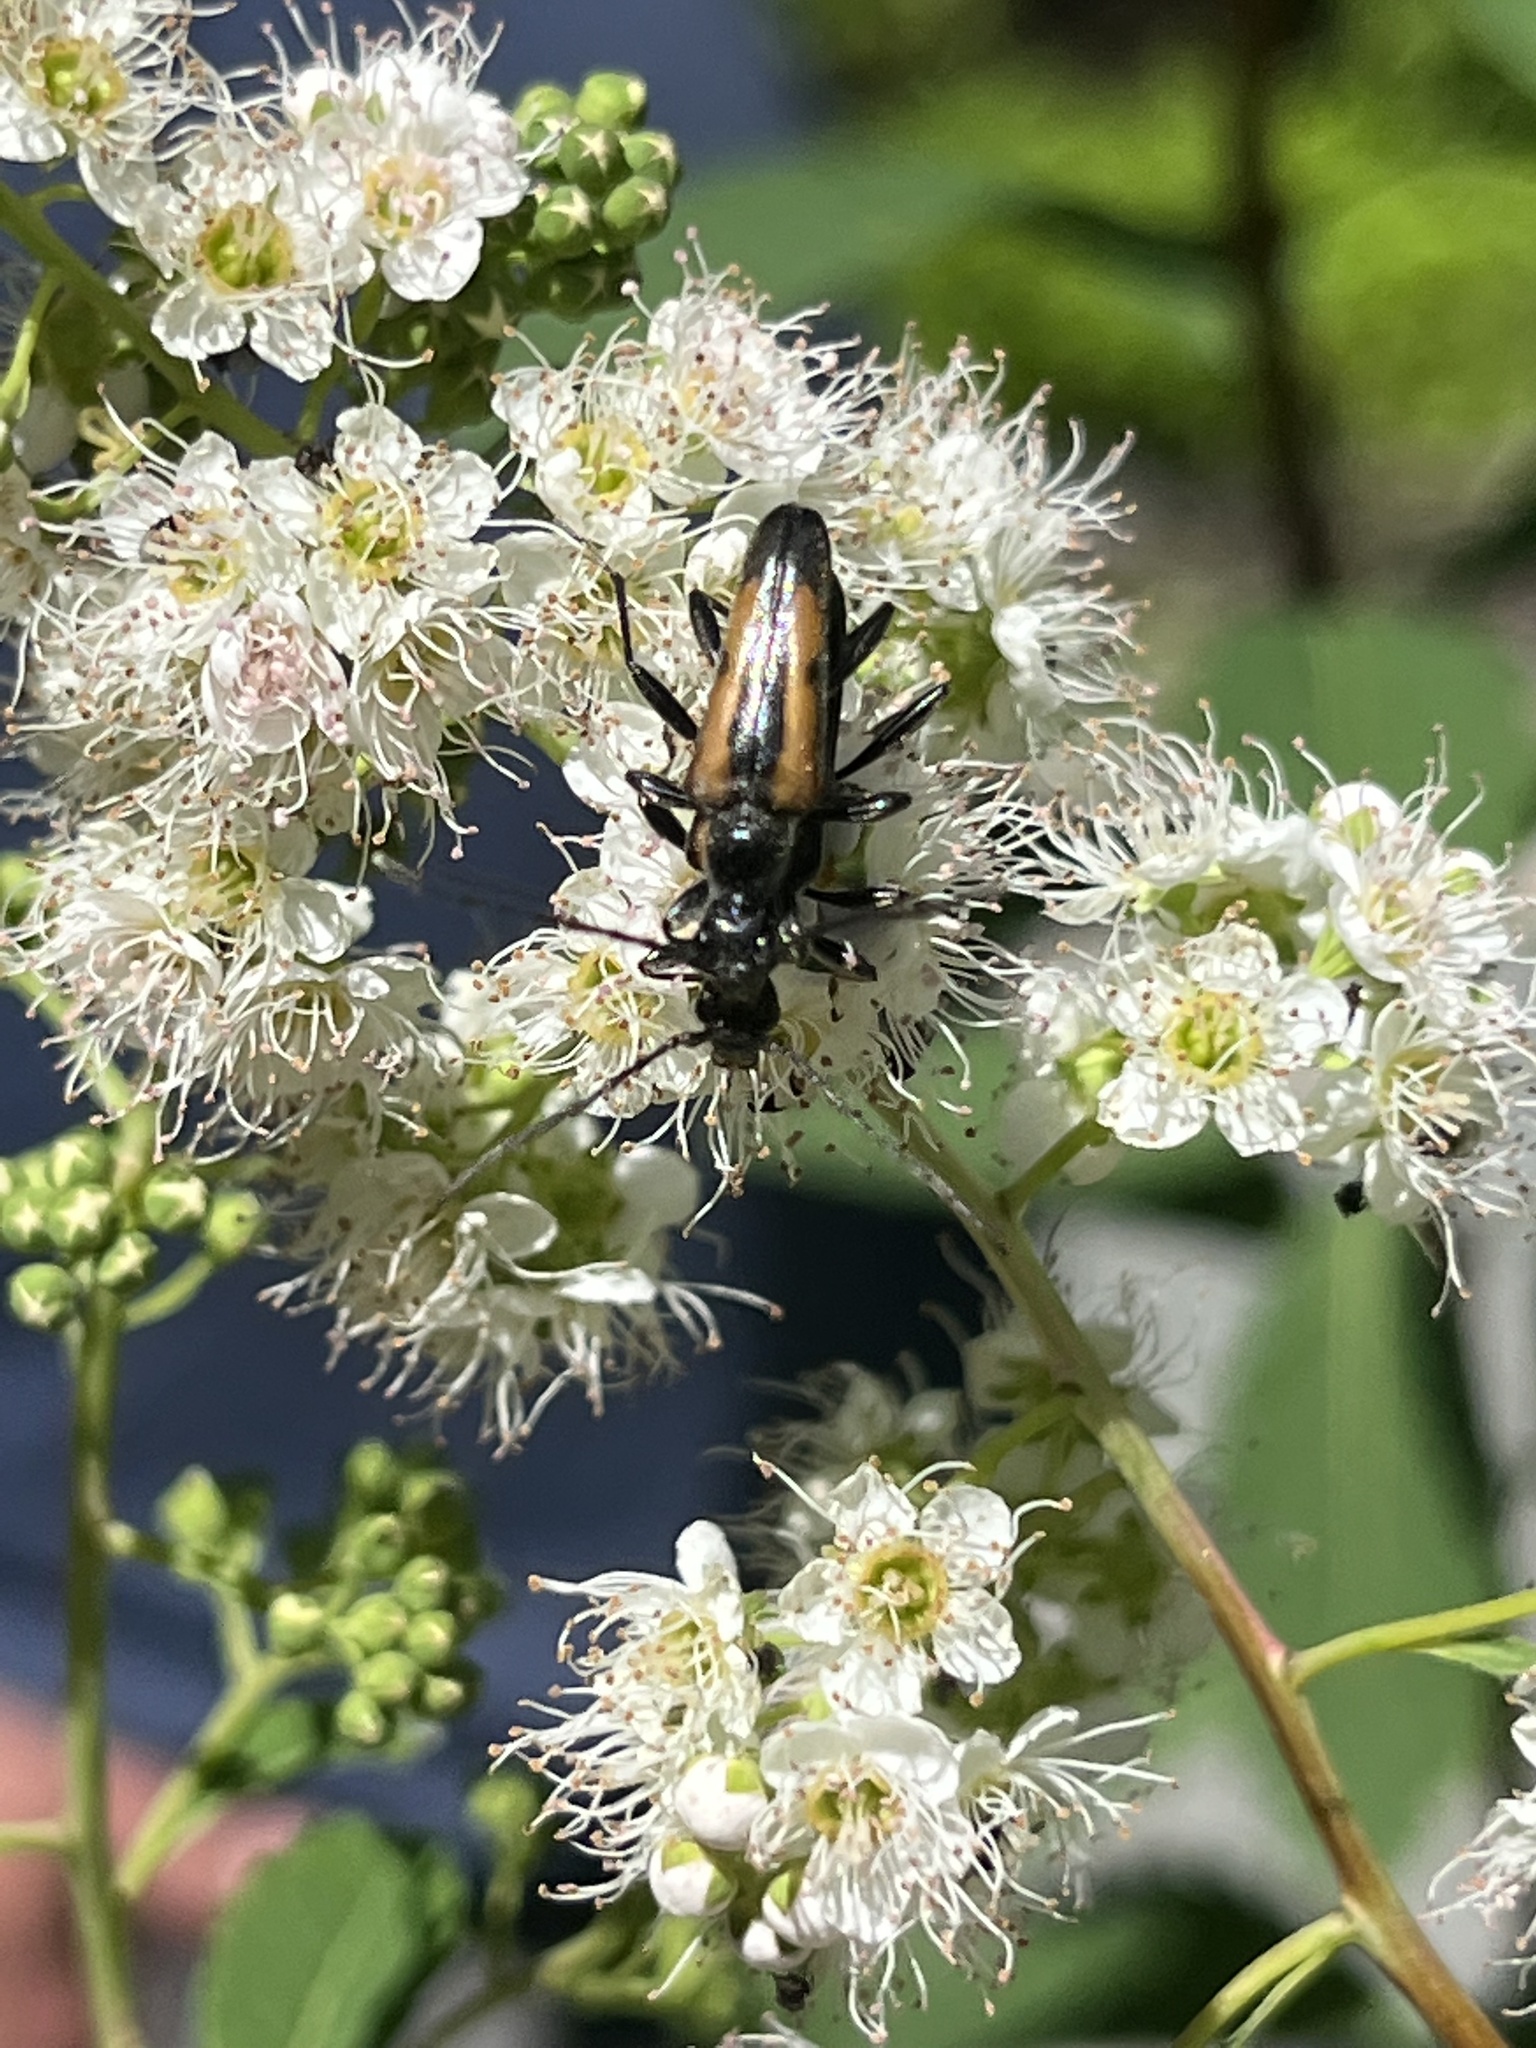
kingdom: Animalia
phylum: Arthropoda
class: Insecta
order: Coleoptera
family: Cerambycidae
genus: Strangalepta
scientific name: Strangalepta abbreviata
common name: Strangalepta flower longhorn beetle
